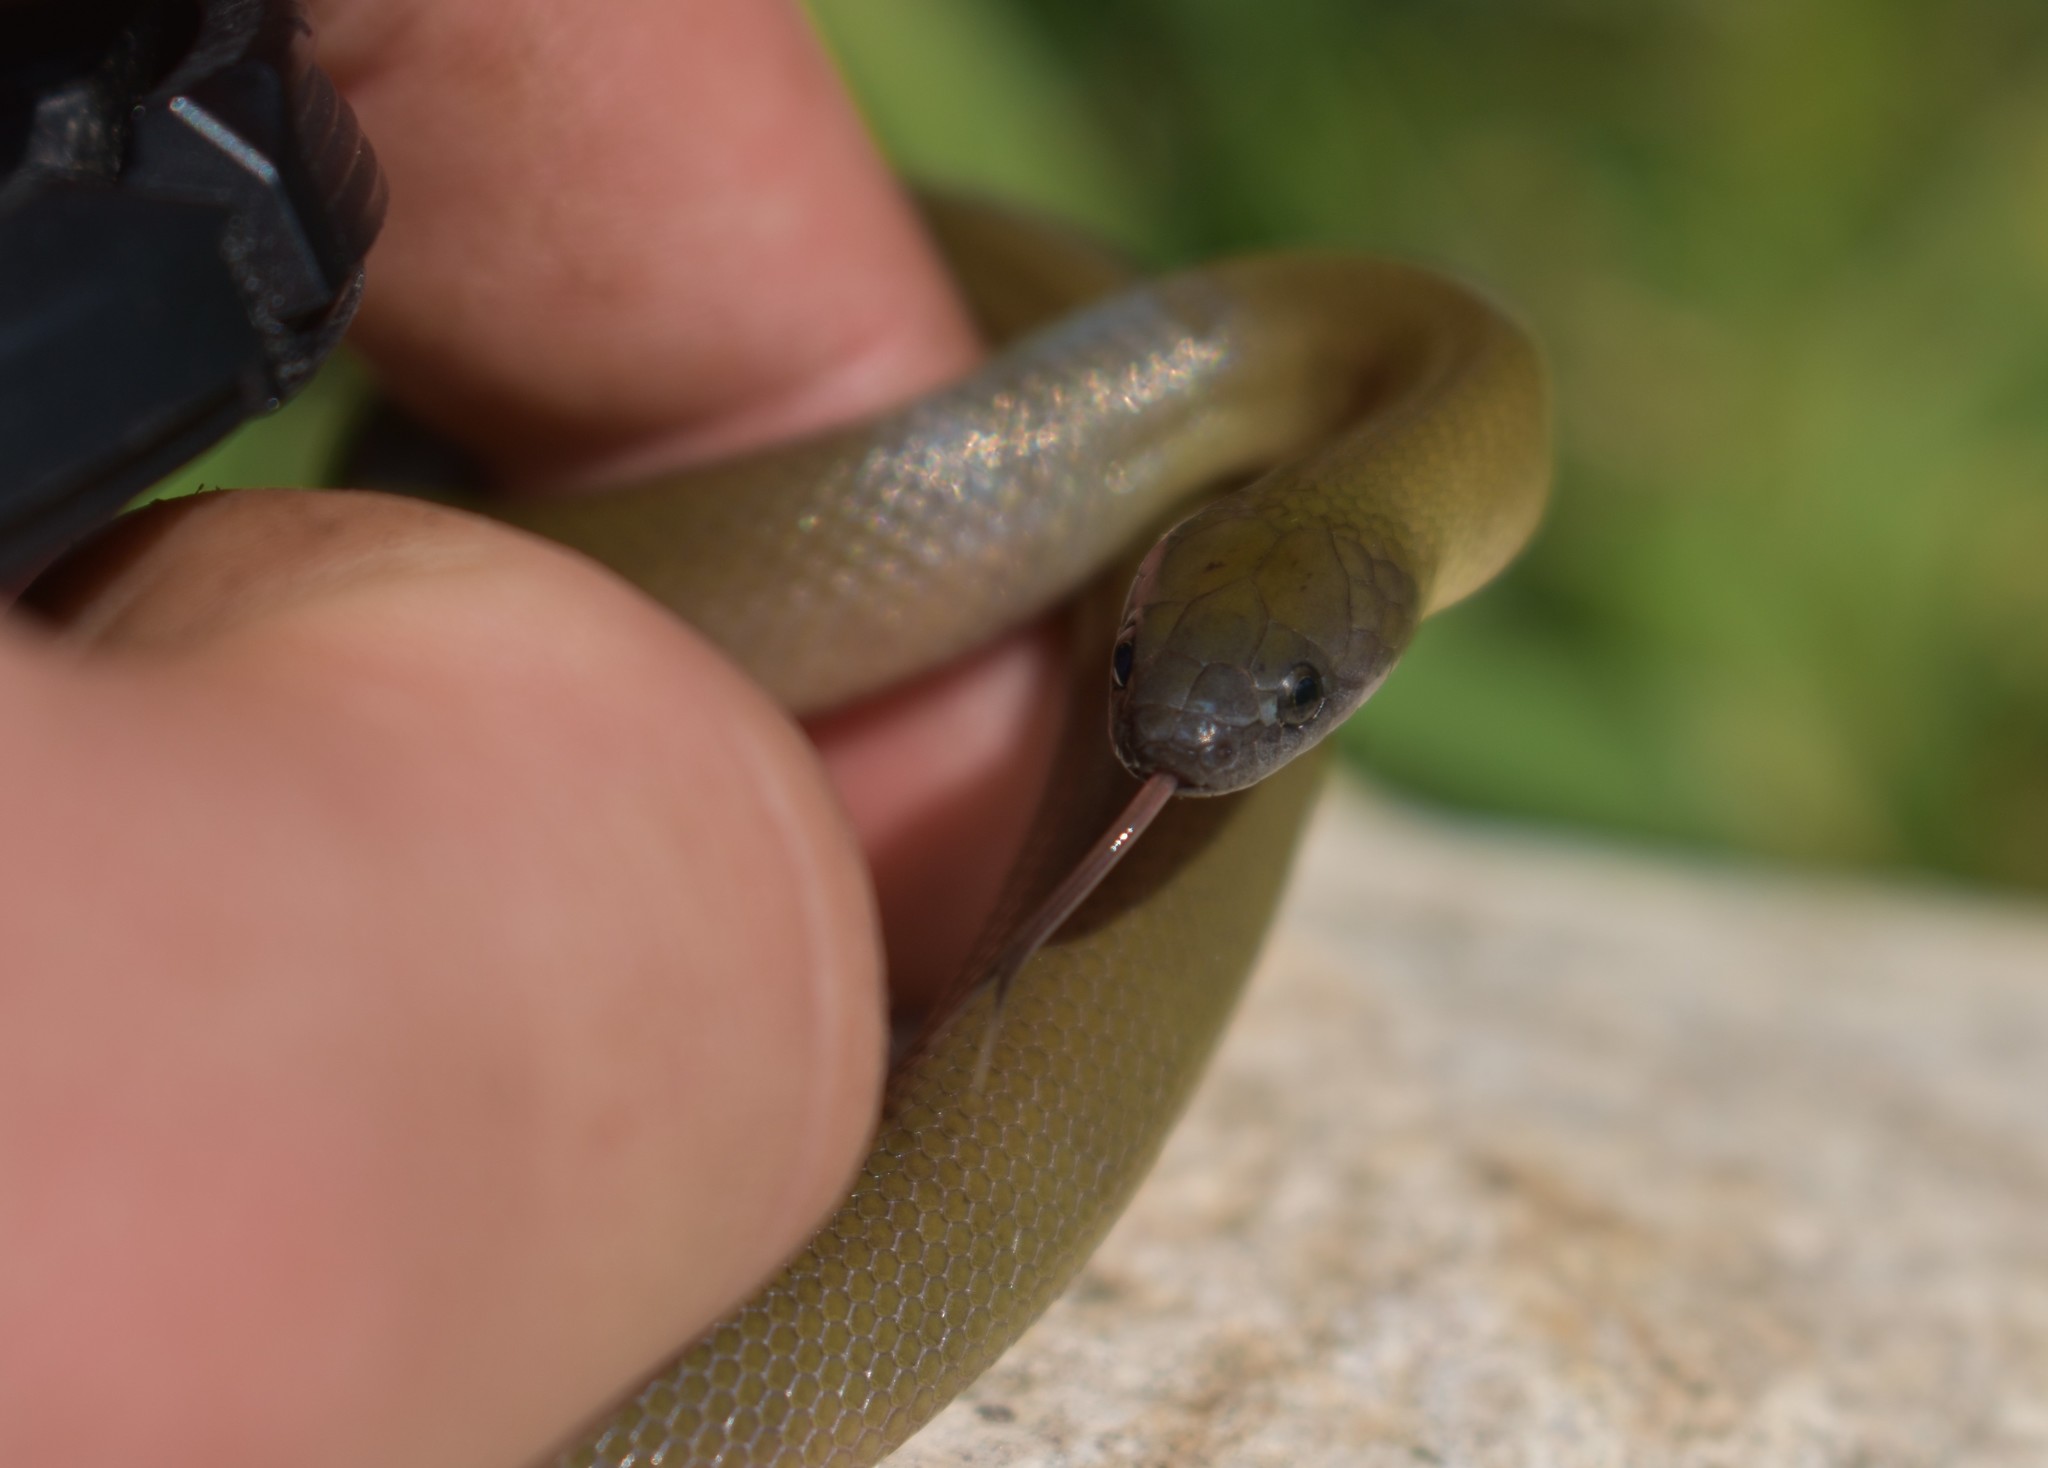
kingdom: Animalia
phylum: Chordata
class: Squamata
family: Lamprophiidae
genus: Lycodonomorphus
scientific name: Lycodonomorphus inornatus
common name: Black house snake
